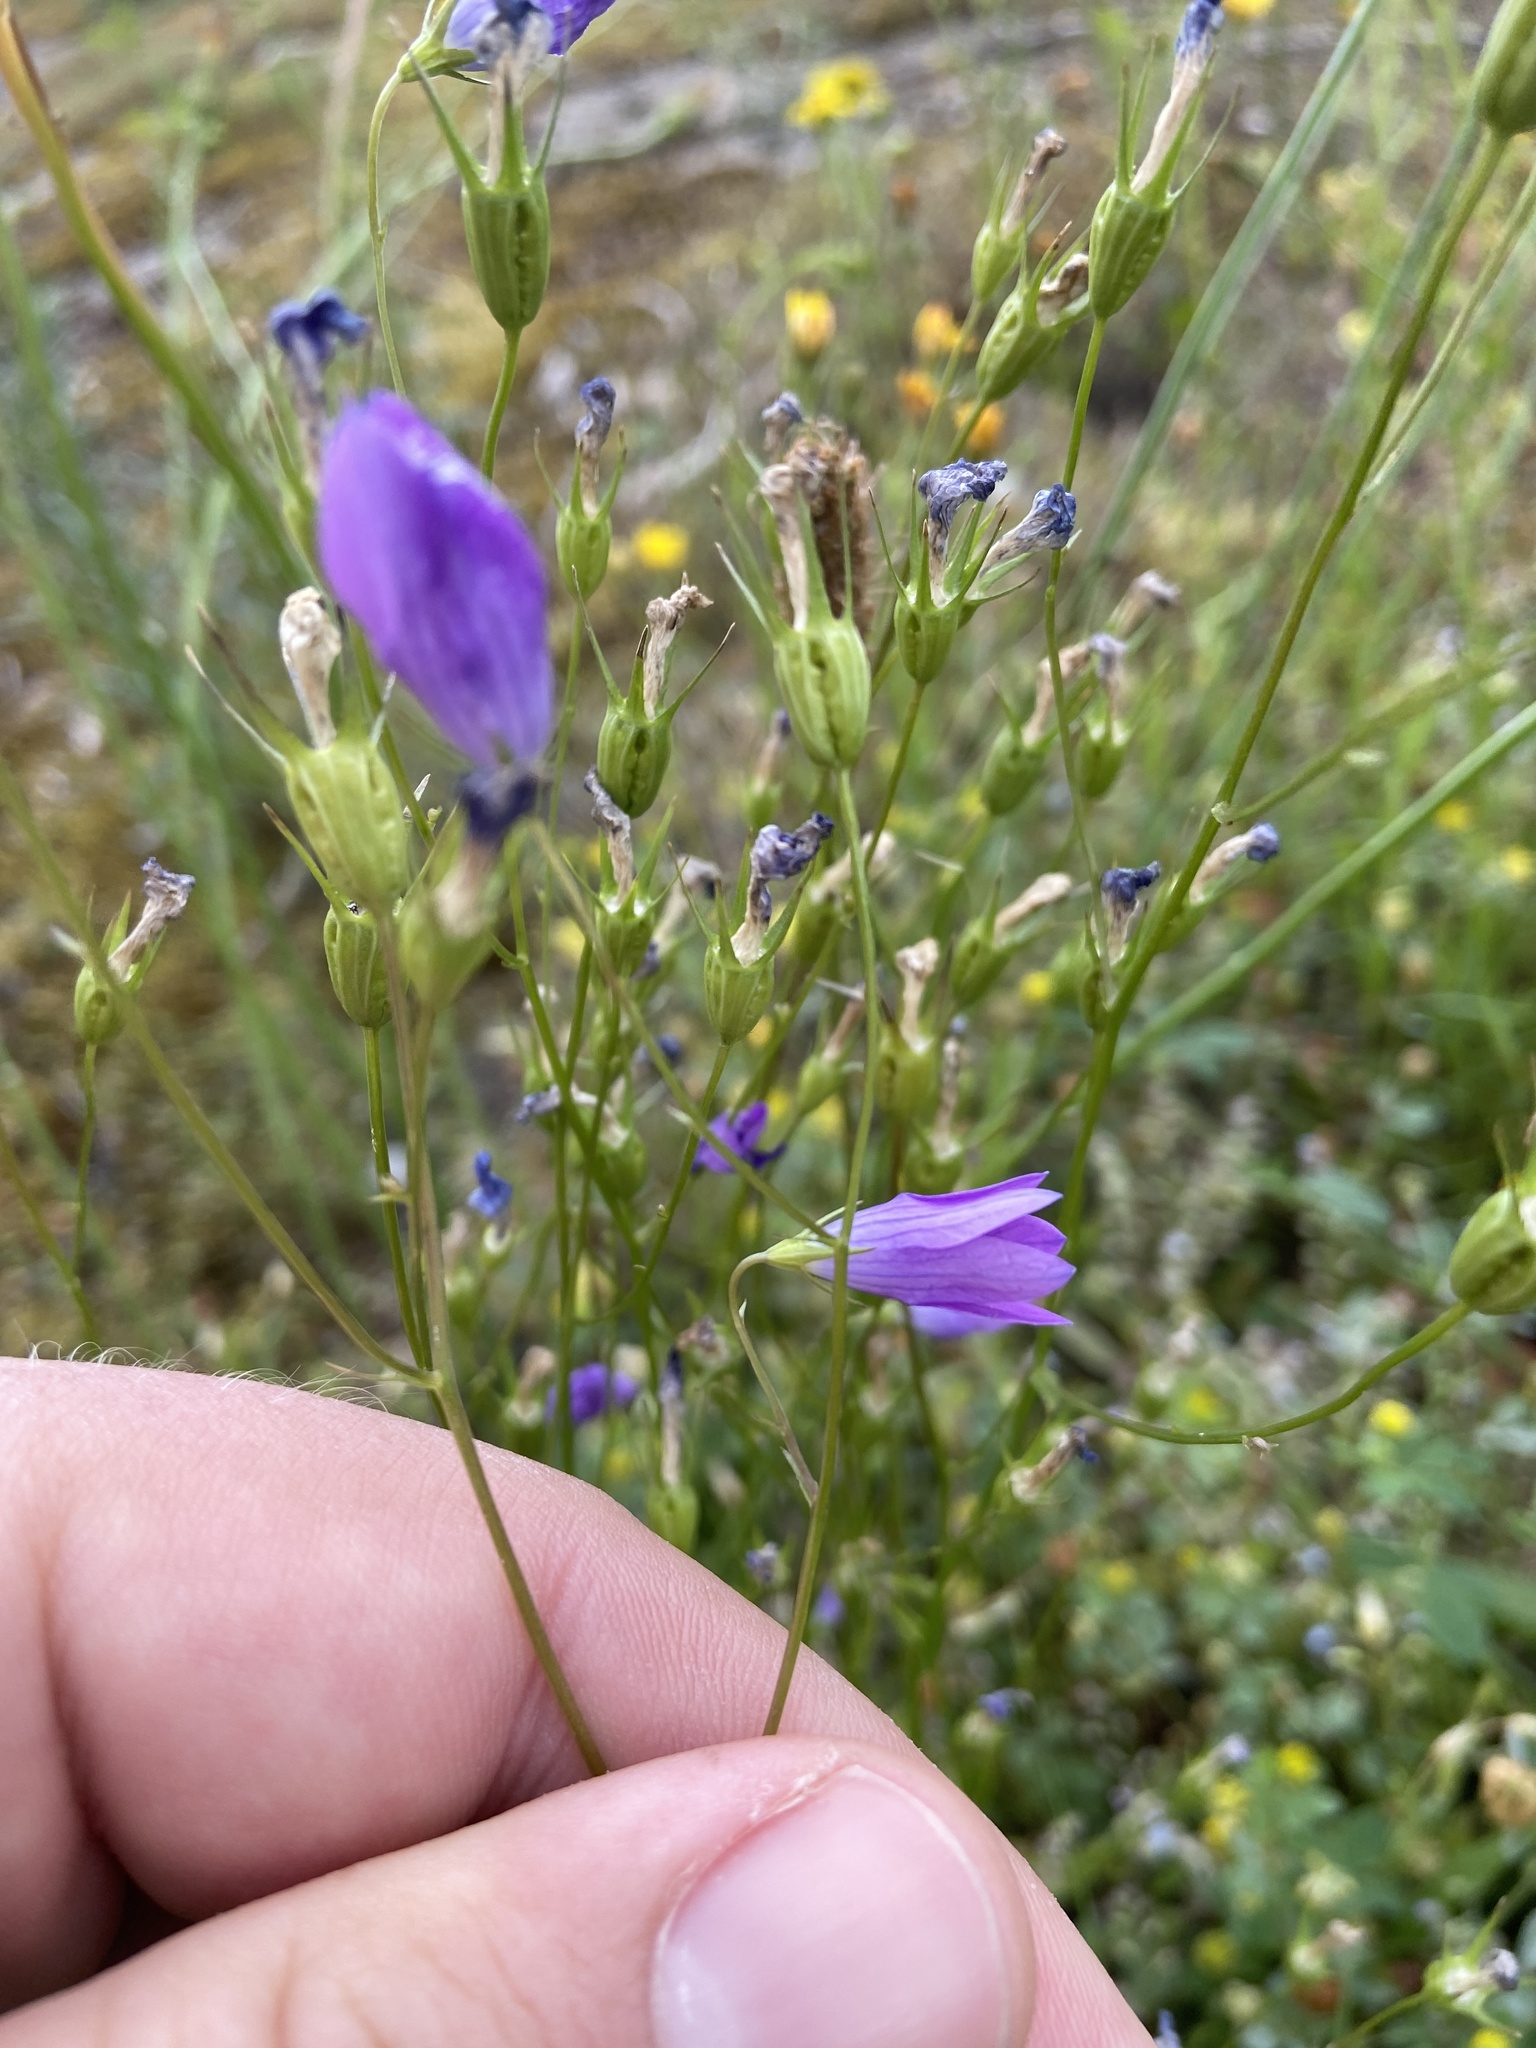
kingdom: Plantae
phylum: Tracheophyta
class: Magnoliopsida
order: Asterales
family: Campanulaceae
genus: Campanula
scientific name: Campanula patula
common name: Spreading bellflower
